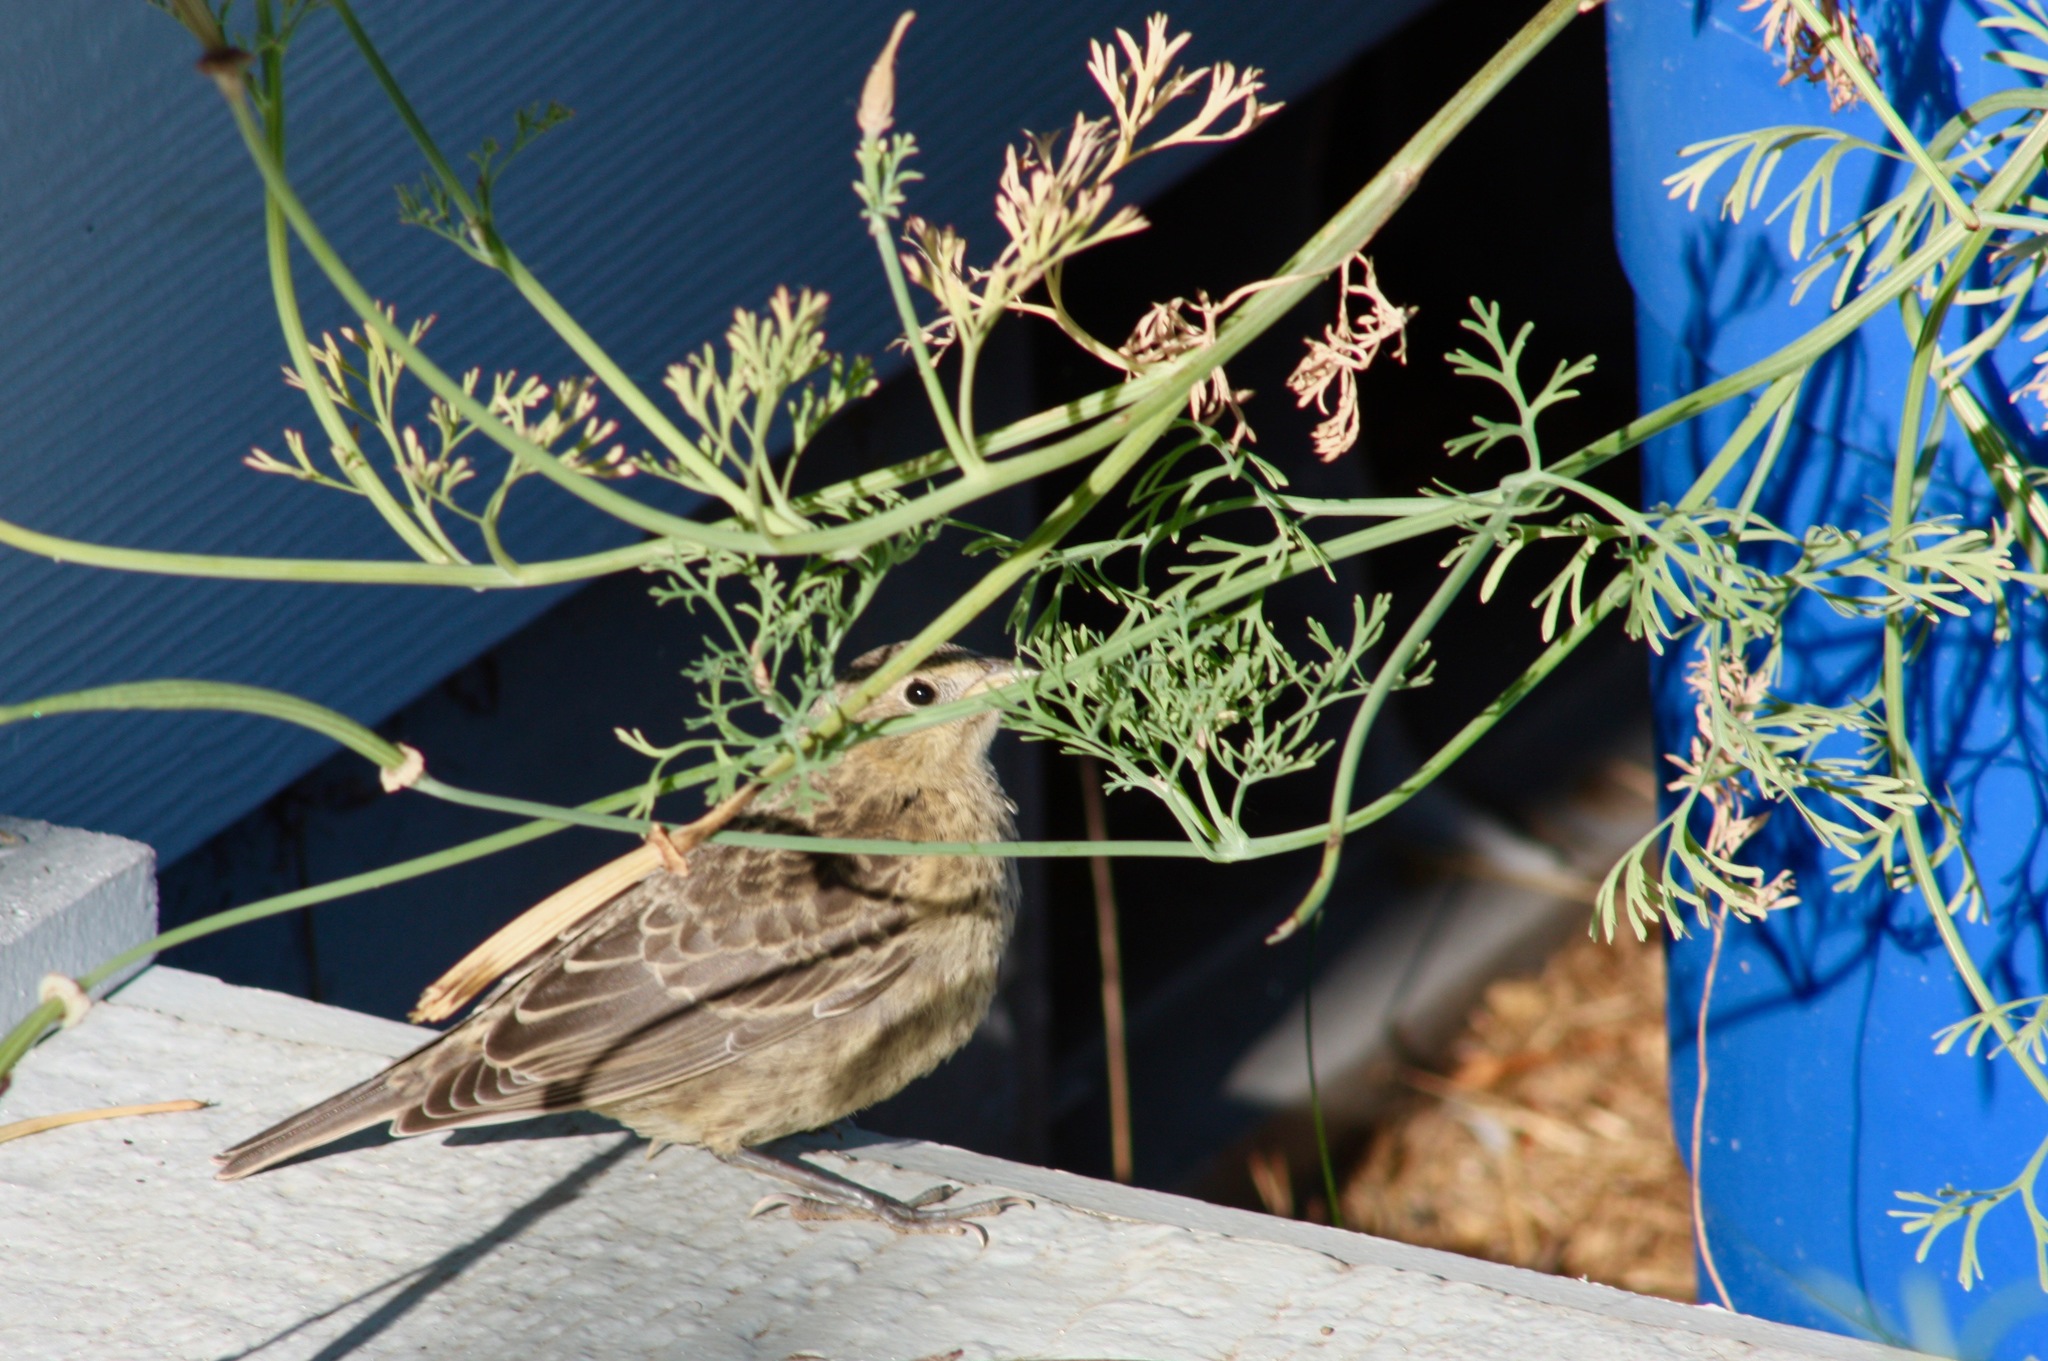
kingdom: Animalia
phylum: Chordata
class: Aves
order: Passeriformes
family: Icteridae
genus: Molothrus
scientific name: Molothrus ater
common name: Brown-headed cowbird
